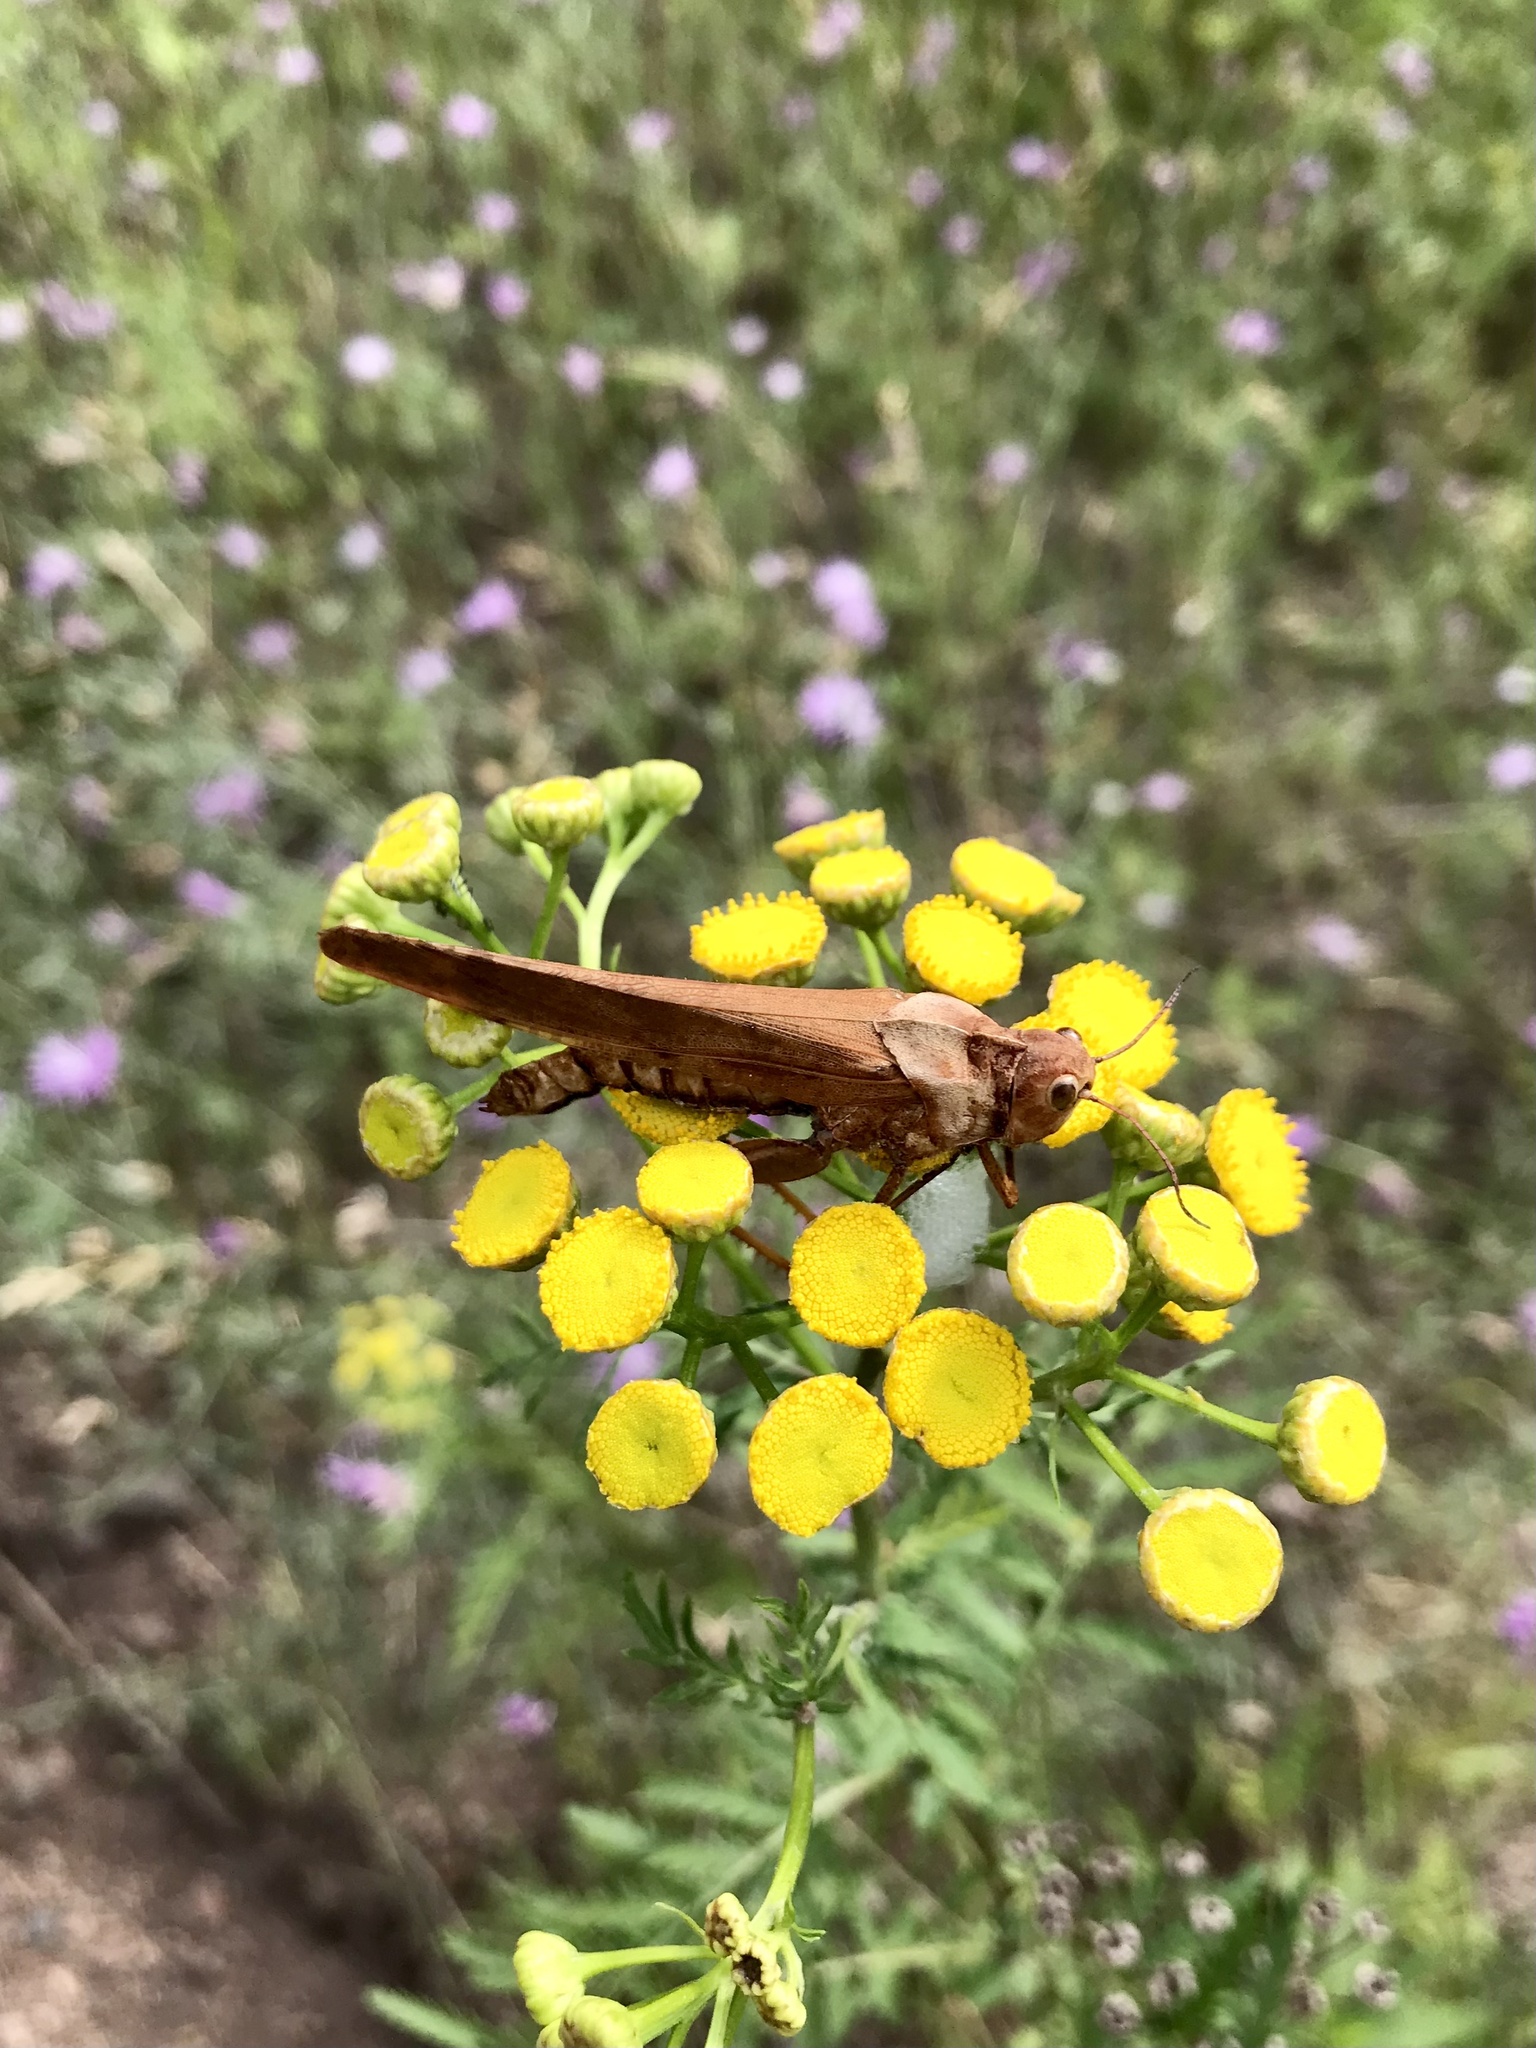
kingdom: Fungi
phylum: Entomophthoromycota
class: Entomophthoromycetes
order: Entomophthorales
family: Entomophthoraceae
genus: Entomophaga
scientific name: Entomophaga grylli
